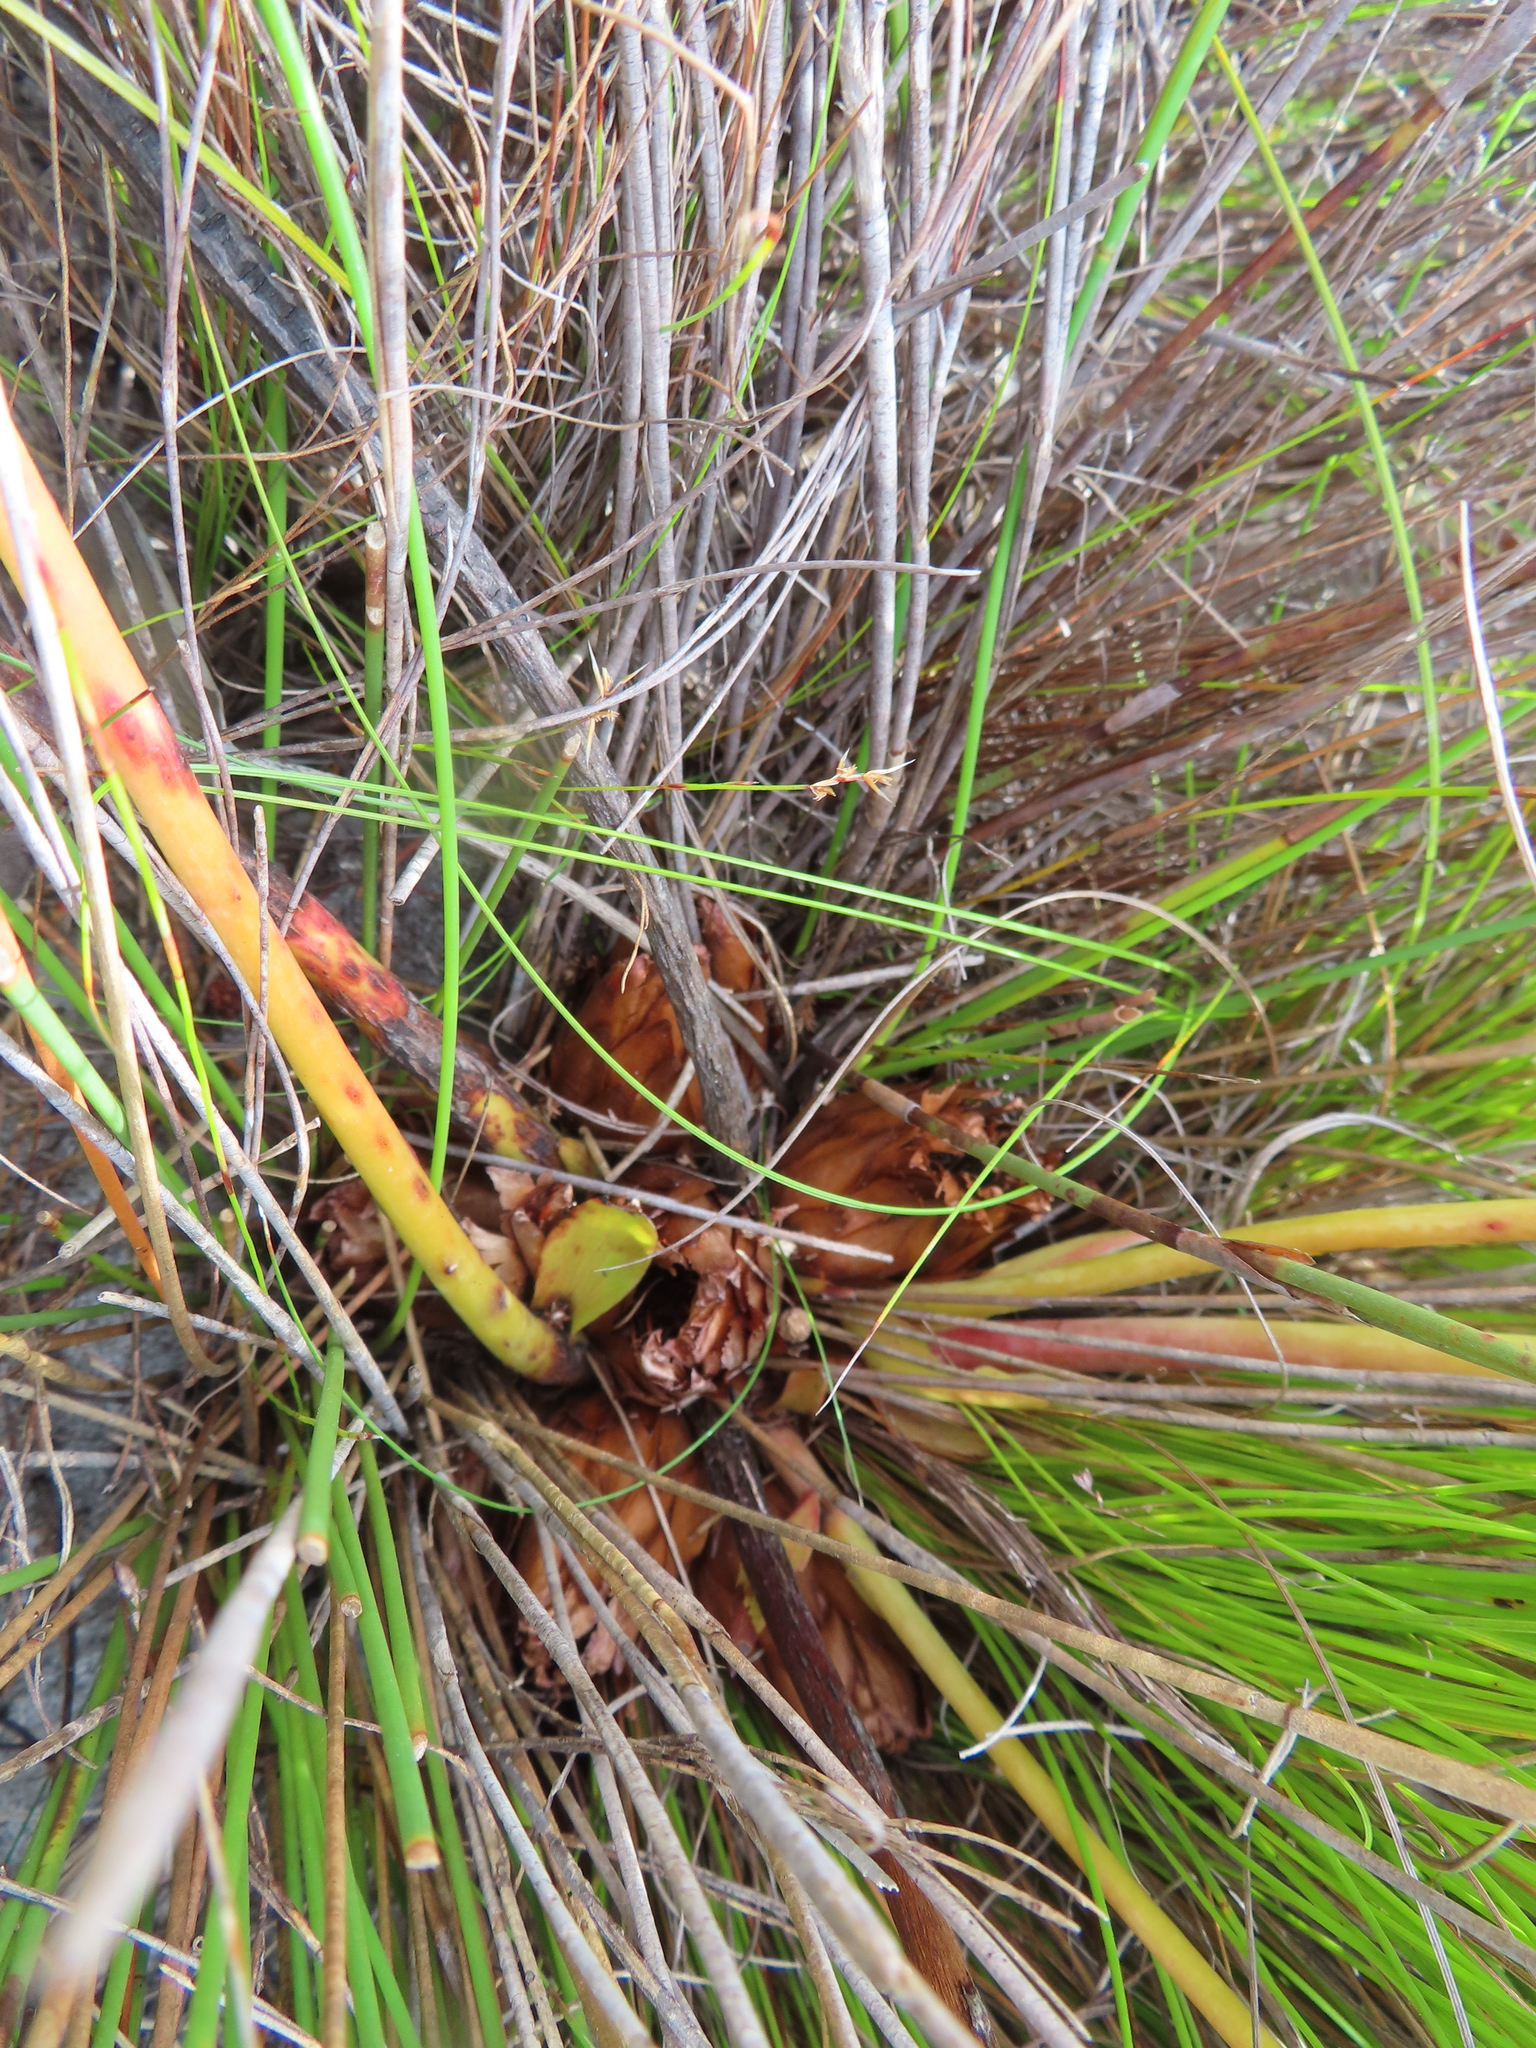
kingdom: Plantae
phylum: Tracheophyta
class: Magnoliopsida
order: Proteales
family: Proteaceae
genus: Protea
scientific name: Protea cordata
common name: Heart-leaf sugarbush
